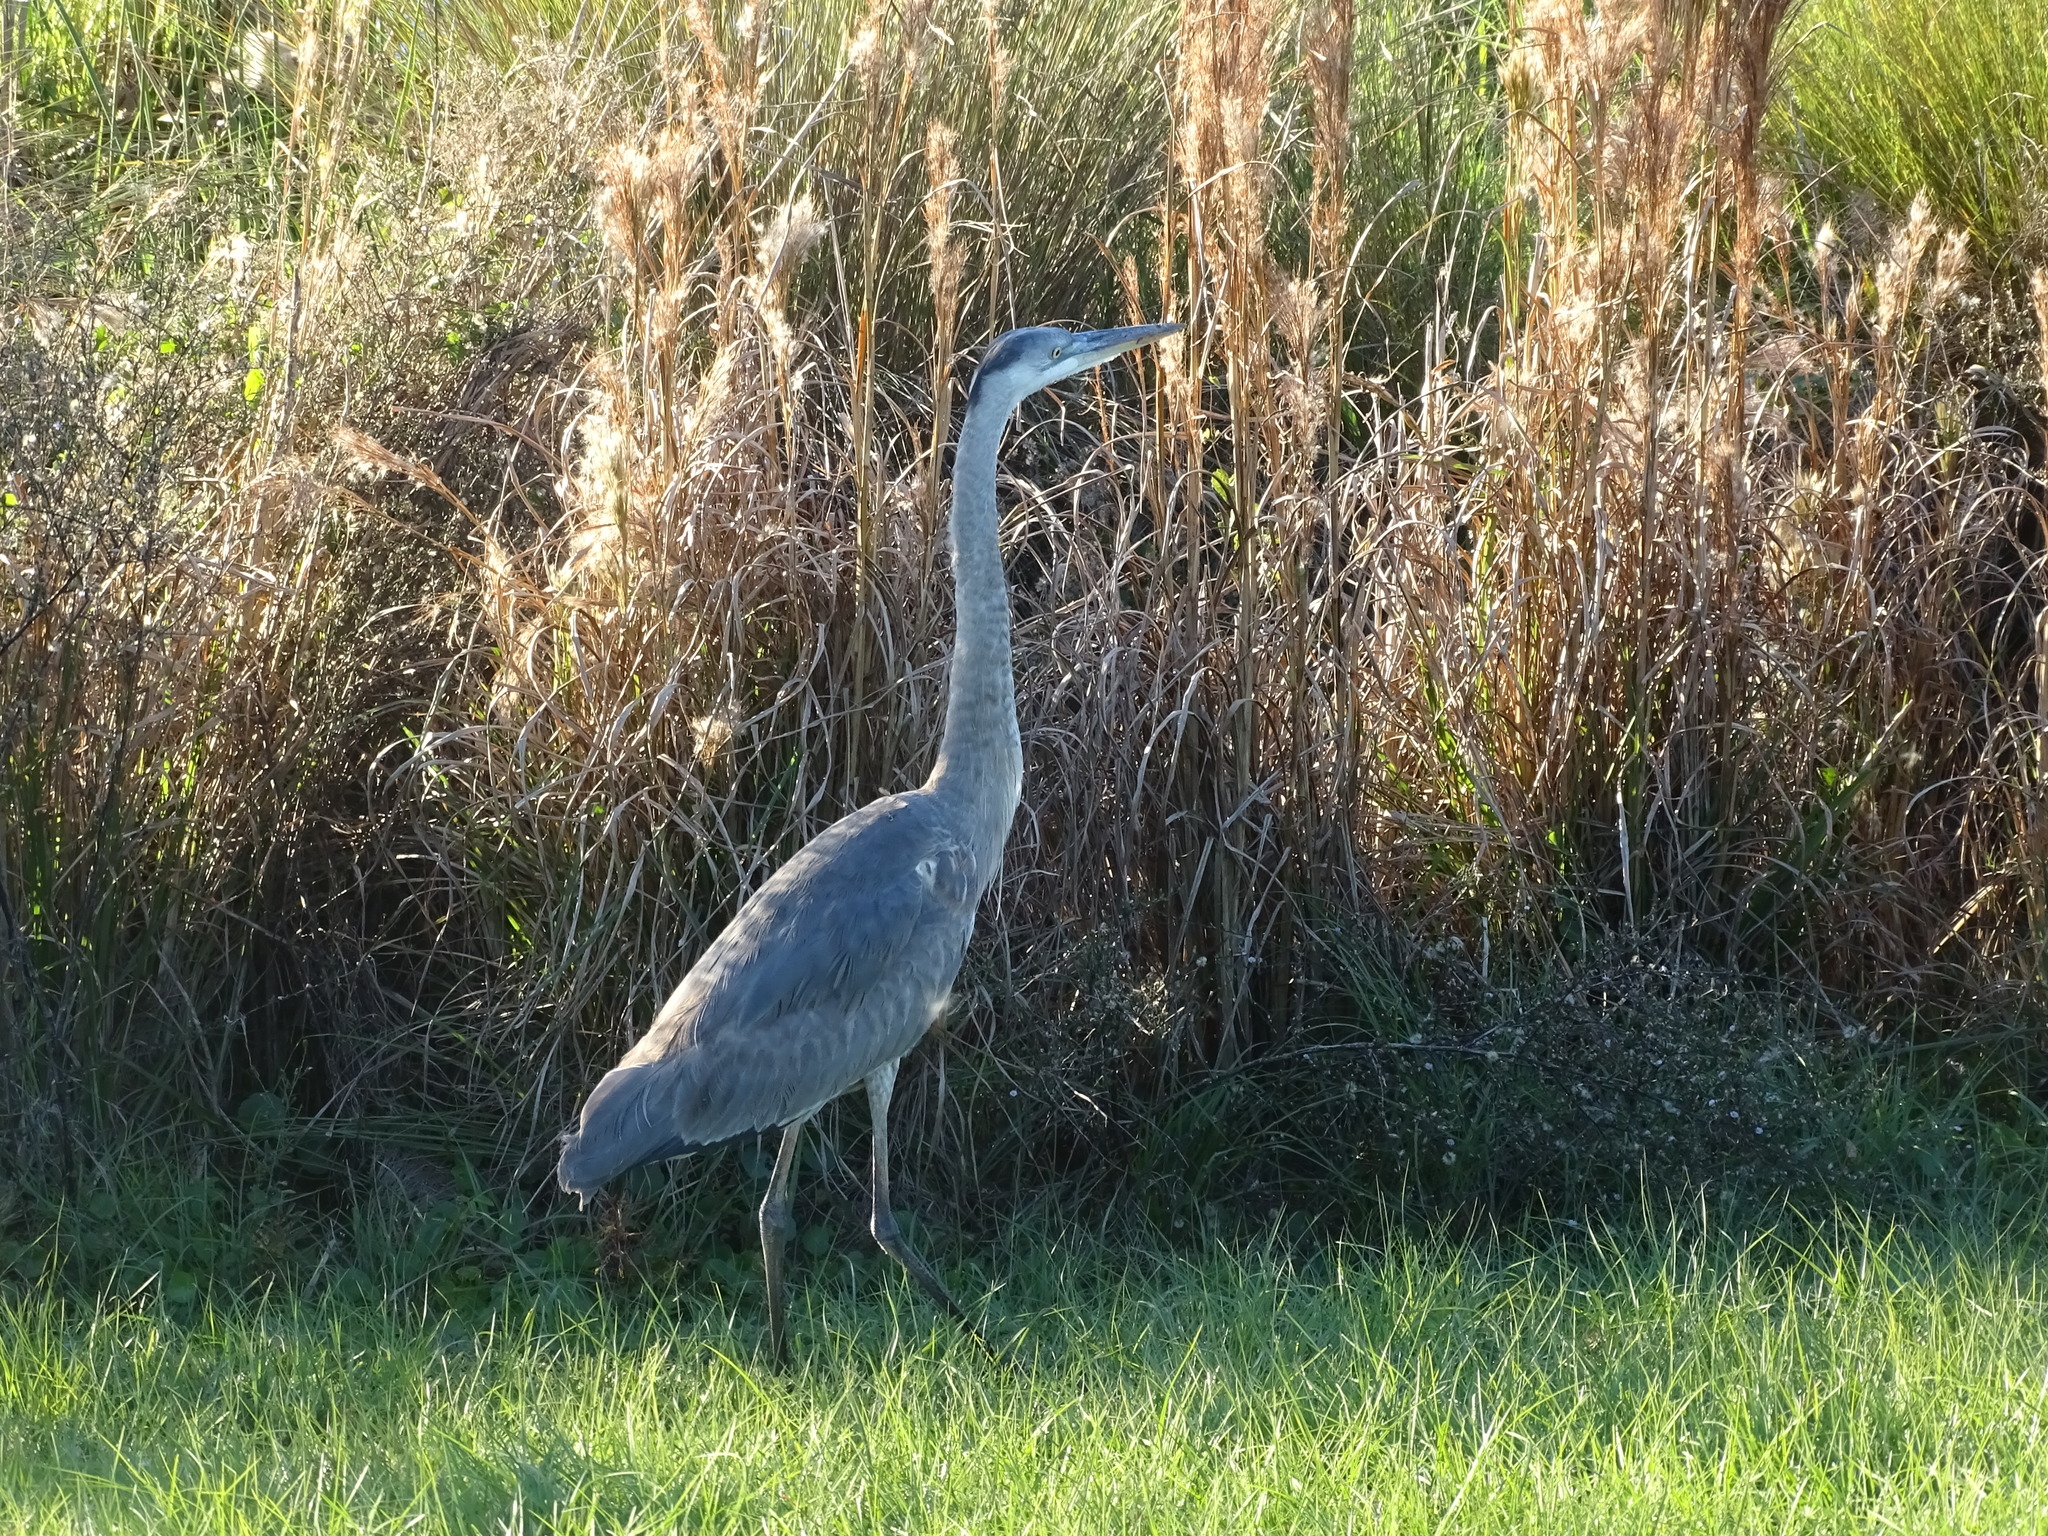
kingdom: Animalia
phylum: Chordata
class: Aves
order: Pelecaniformes
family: Ardeidae
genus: Ardea
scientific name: Ardea herodias
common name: Great blue heron
